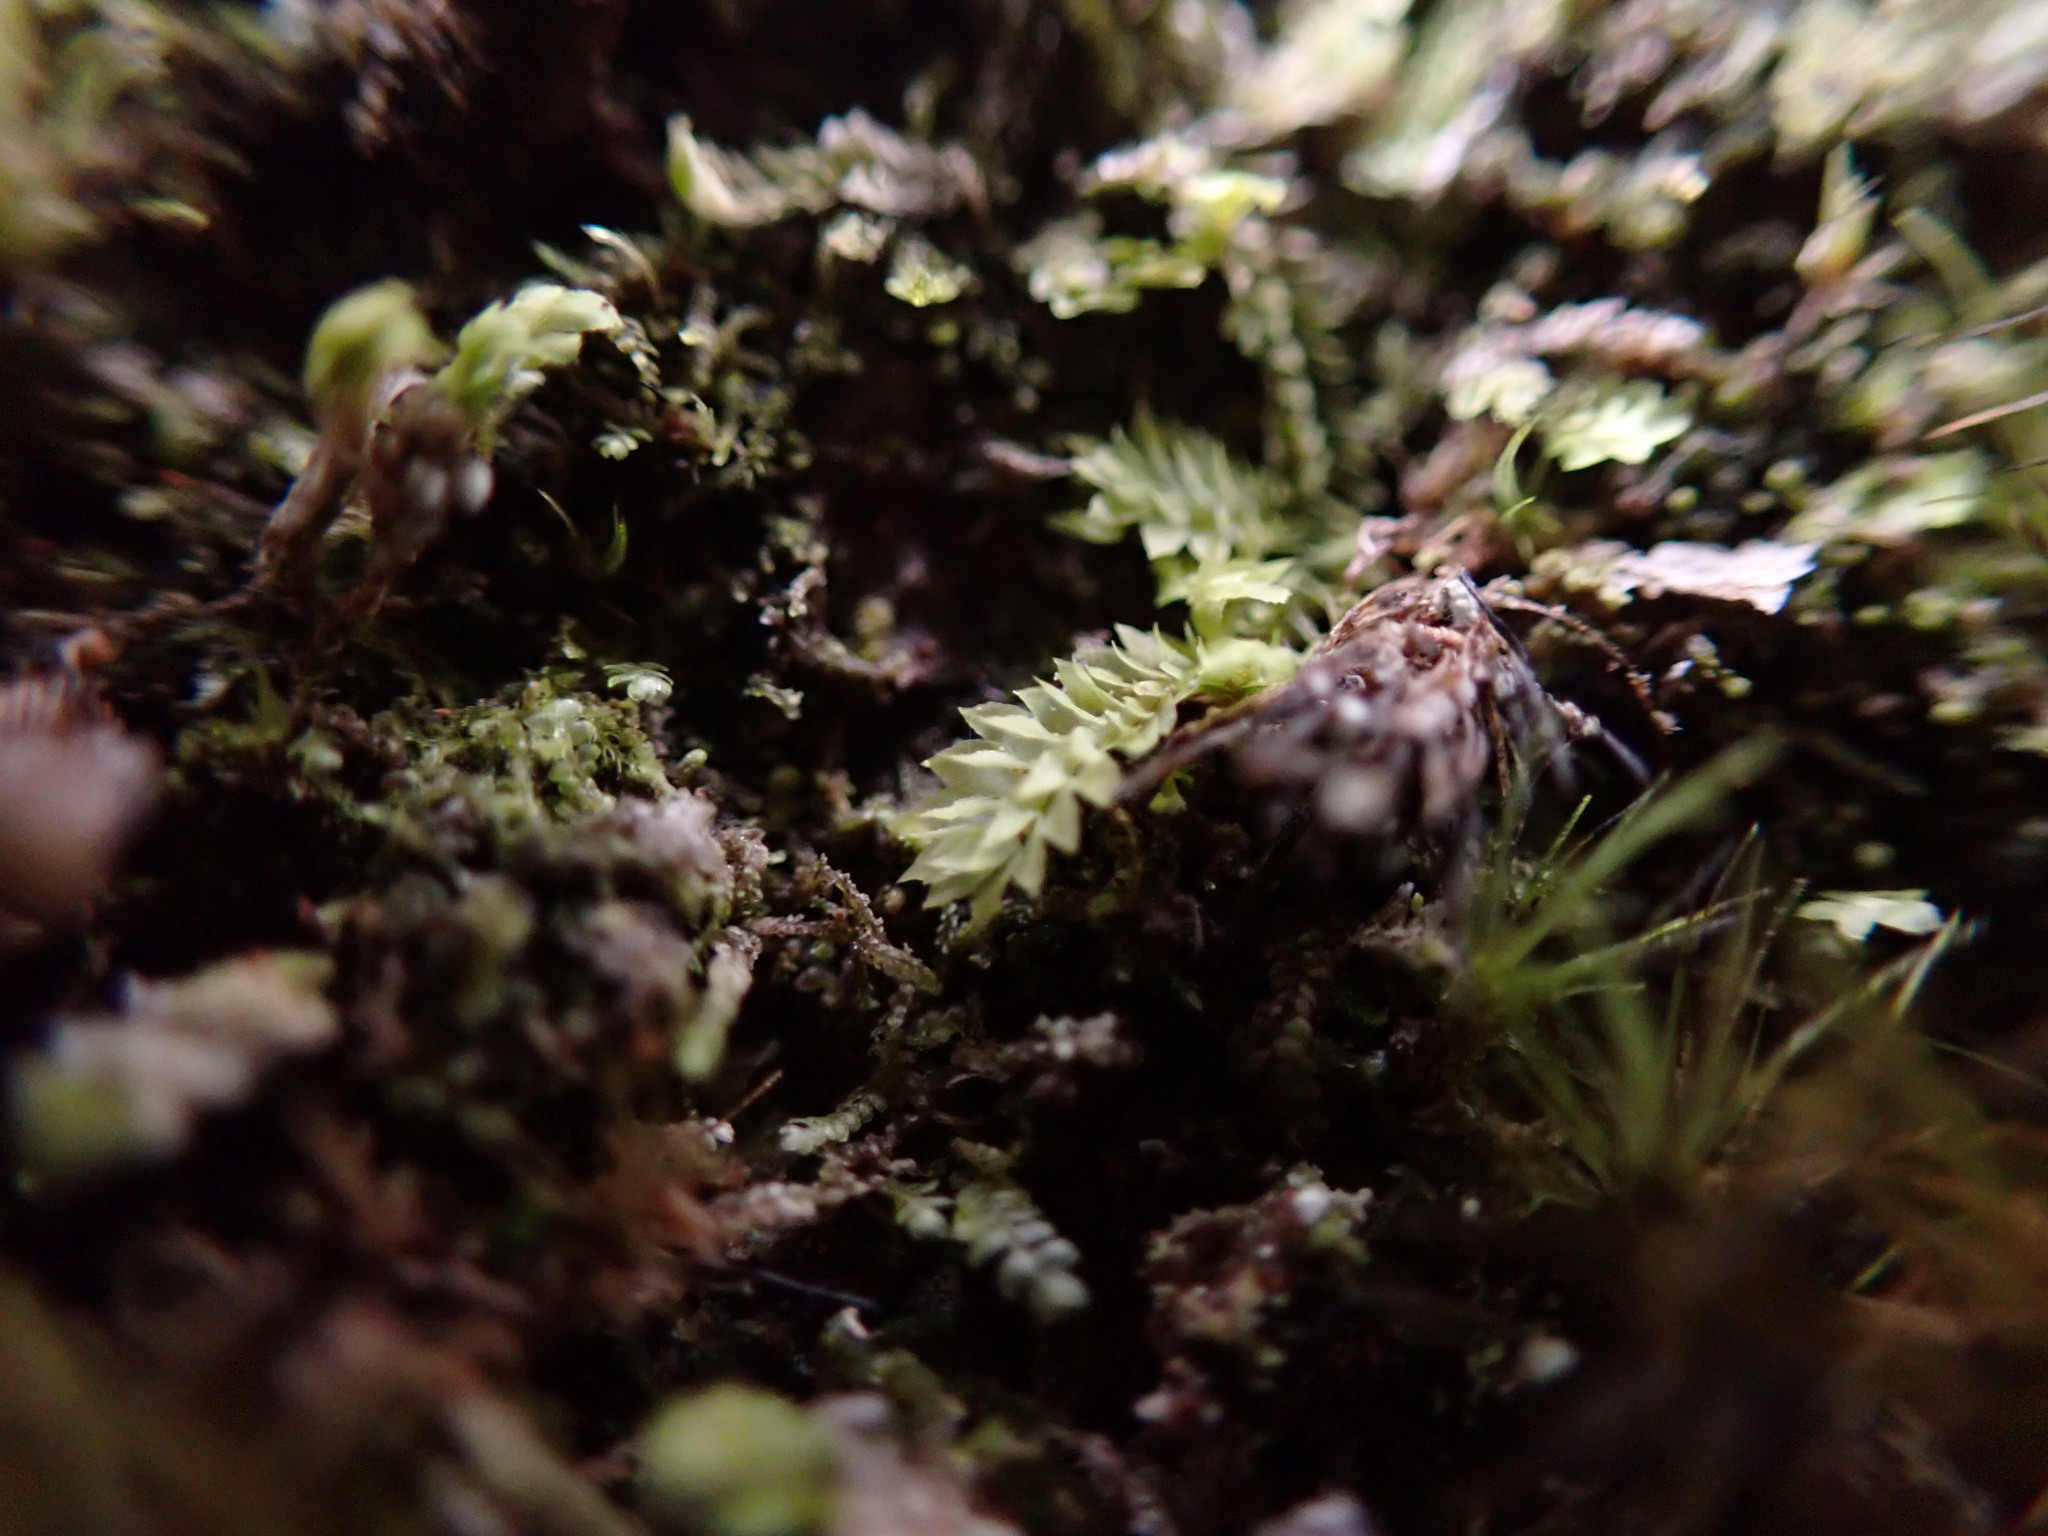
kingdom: Plantae
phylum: Marchantiophyta
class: Jungermanniopsida
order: Jungermanniales
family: Scapaniaceae
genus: Douinia
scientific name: Douinia ovata
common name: Waxy earwort
